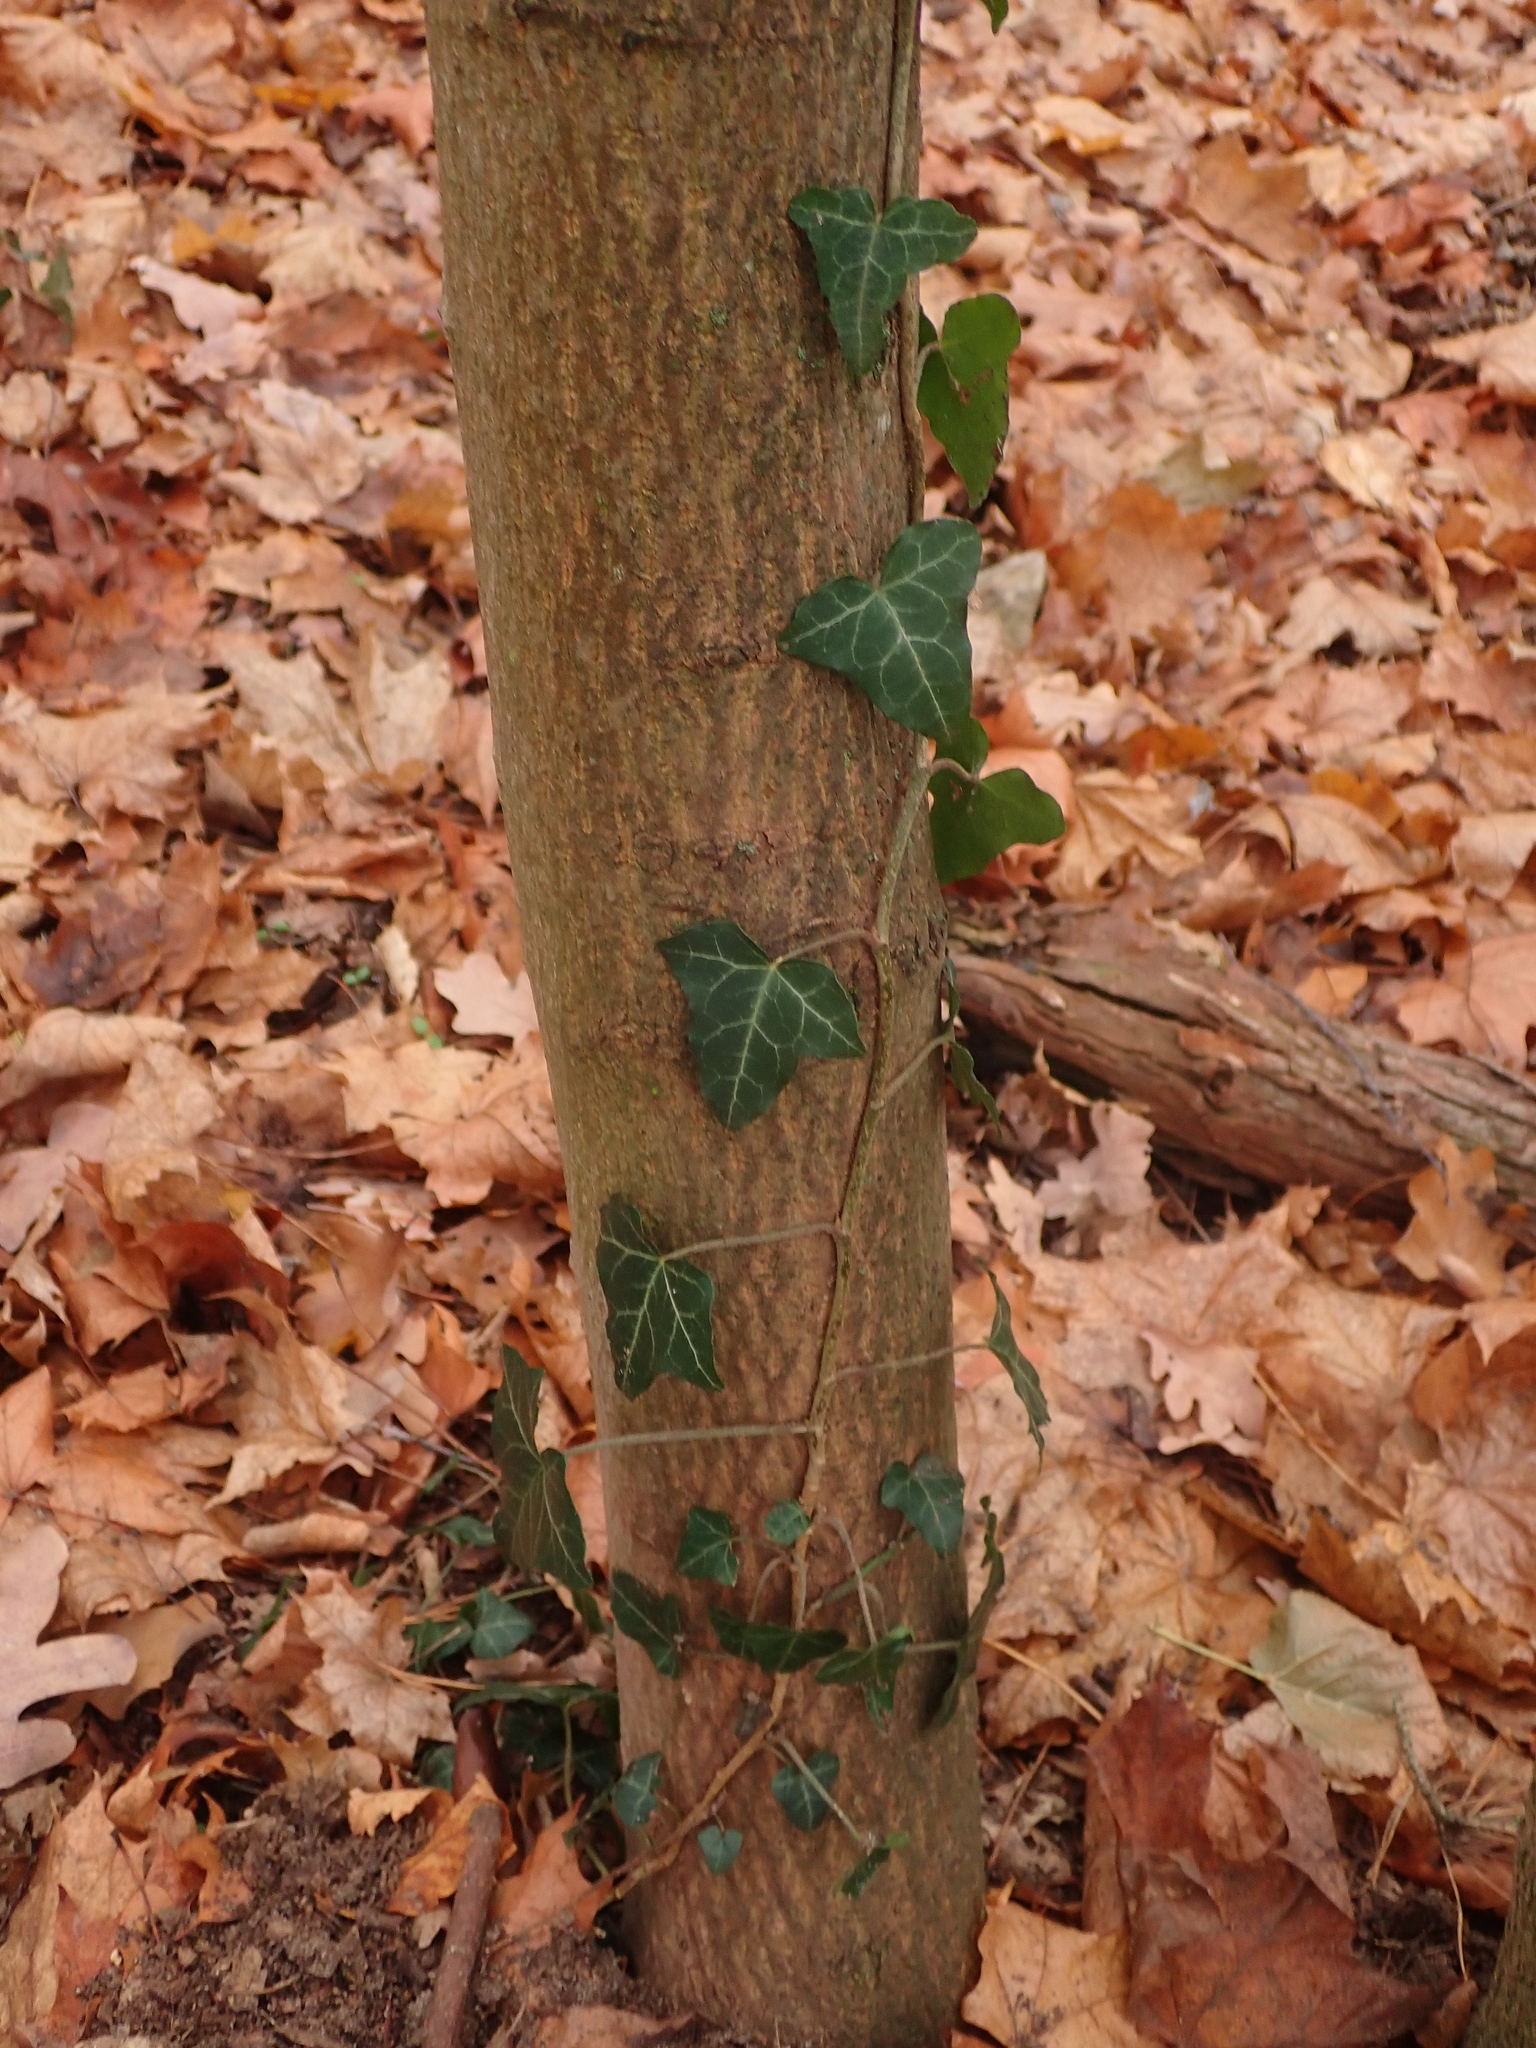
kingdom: Plantae
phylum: Tracheophyta
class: Magnoliopsida
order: Apiales
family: Araliaceae
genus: Hedera
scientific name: Hedera helix
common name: Ivy
